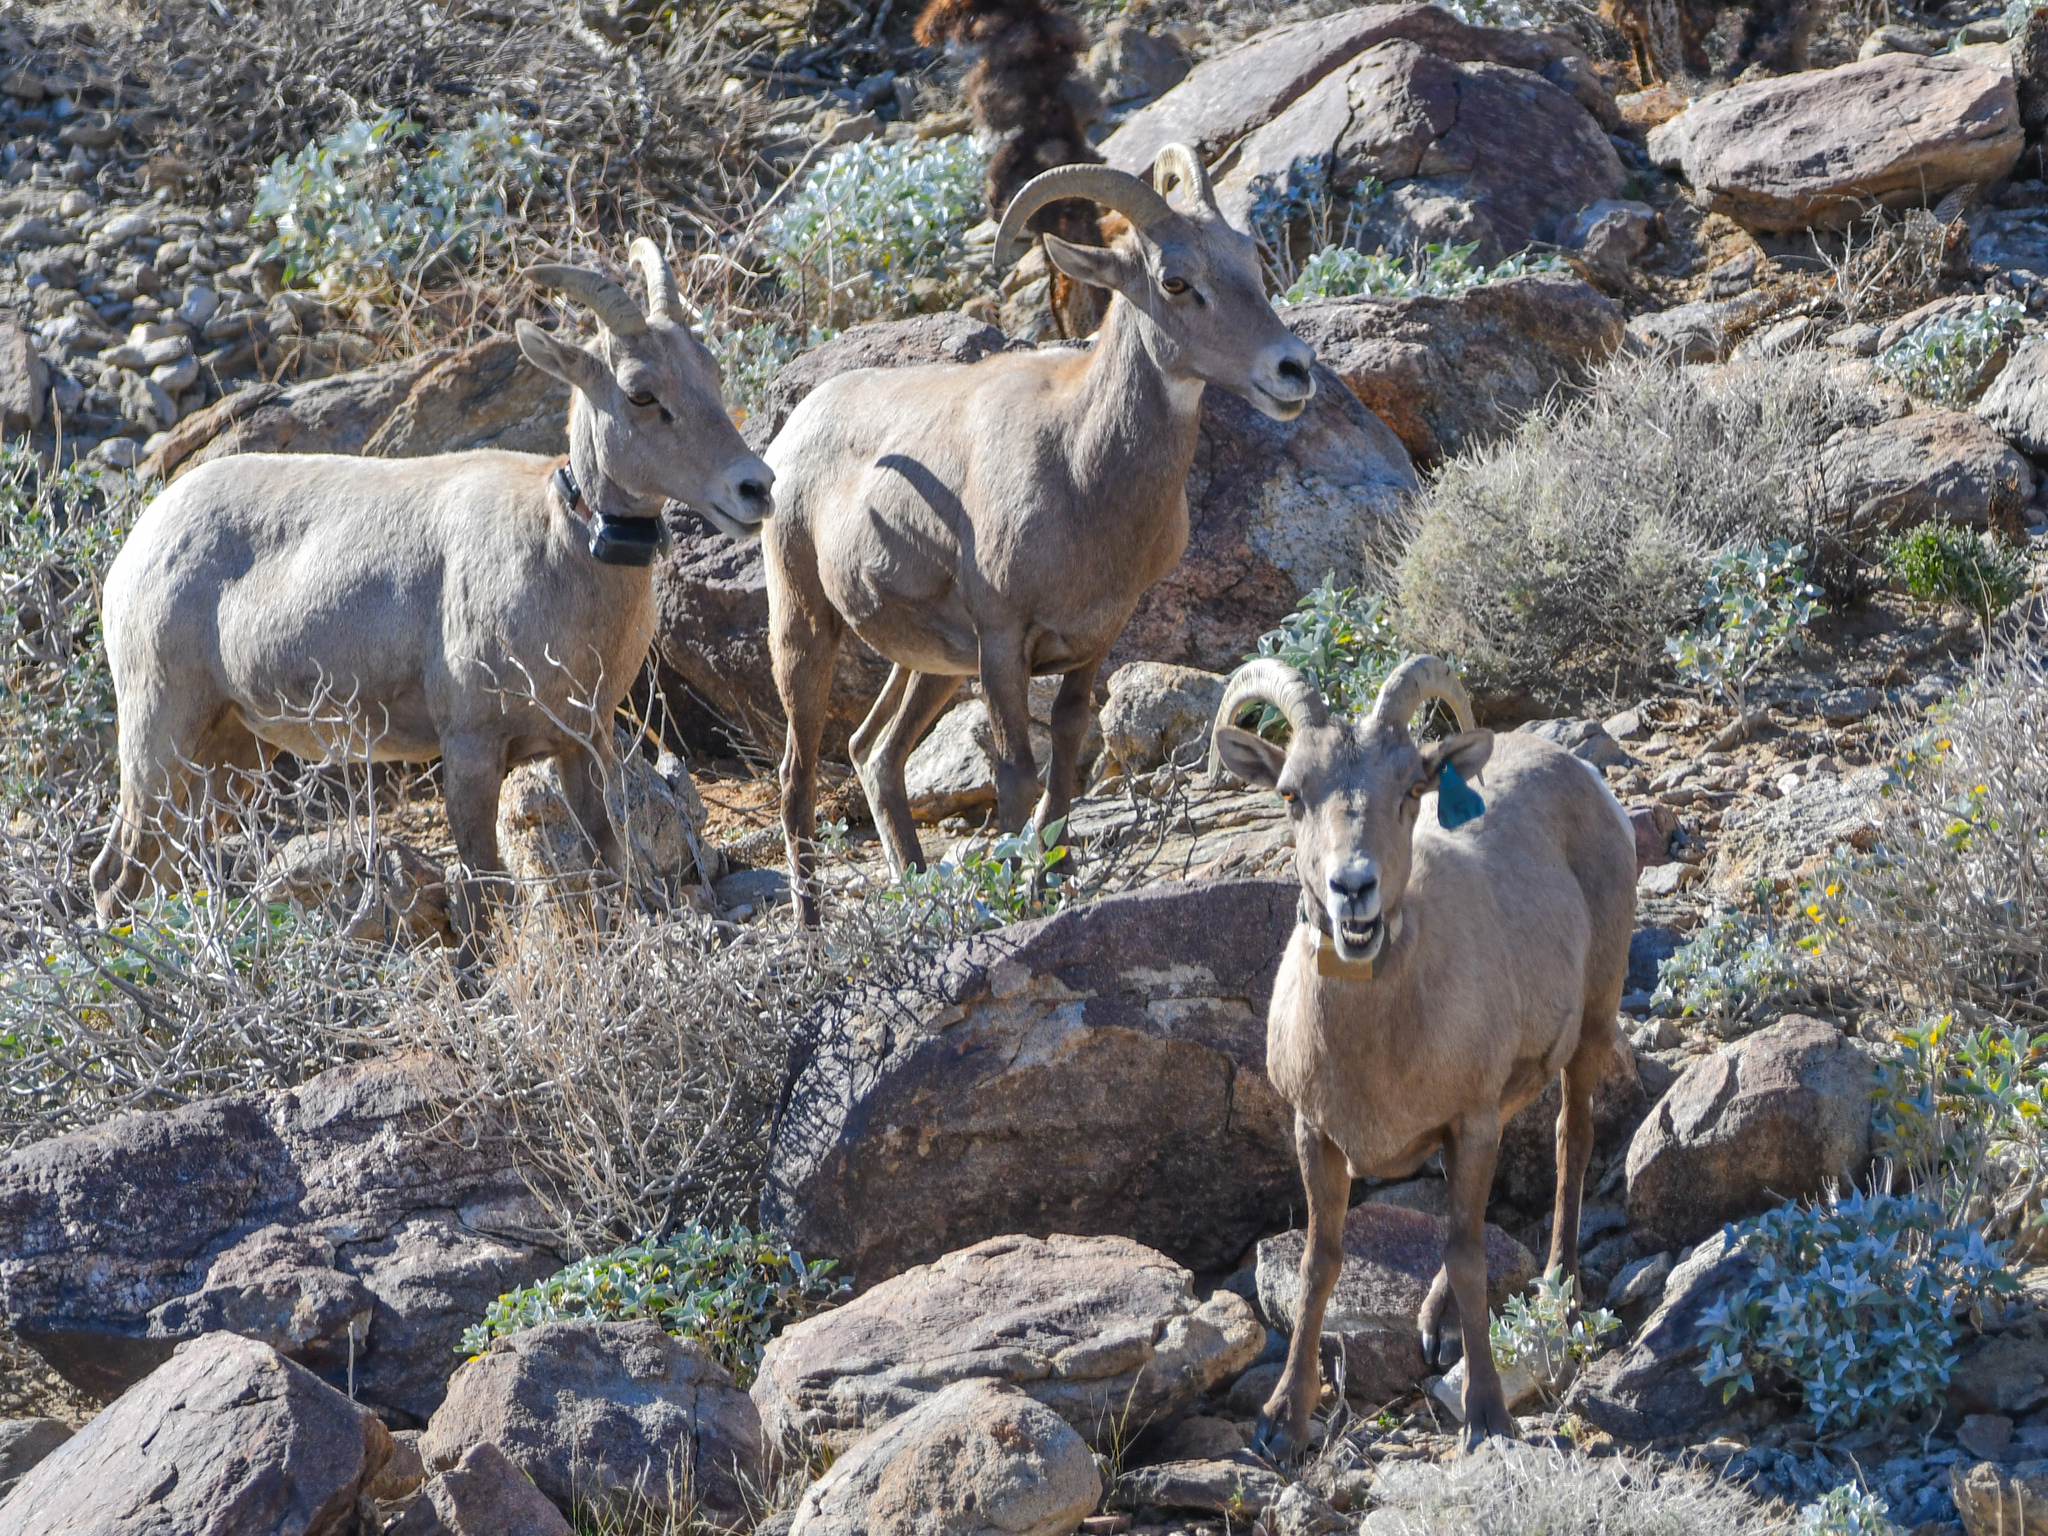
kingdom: Animalia
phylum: Chordata
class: Mammalia
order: Artiodactyla
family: Bovidae
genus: Ovis
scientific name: Ovis canadensis
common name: Bighorn sheep
